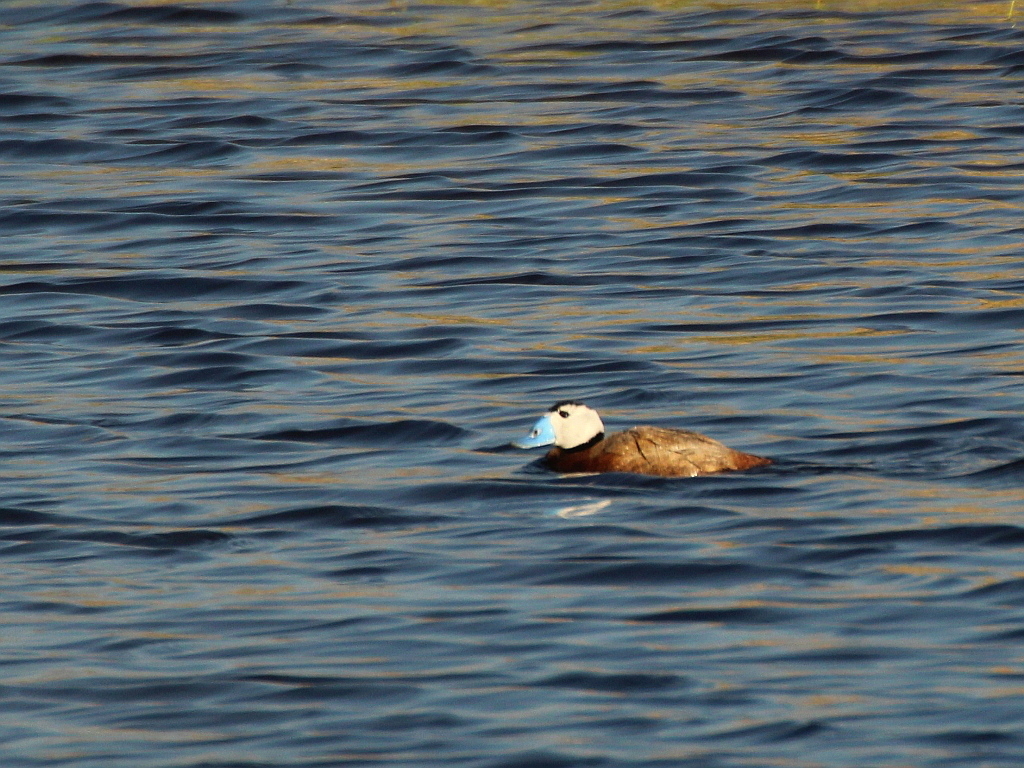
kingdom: Animalia
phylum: Chordata
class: Aves
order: Anseriformes
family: Anatidae
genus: Oxyura
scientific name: Oxyura leucocephala
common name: White-headed duck
